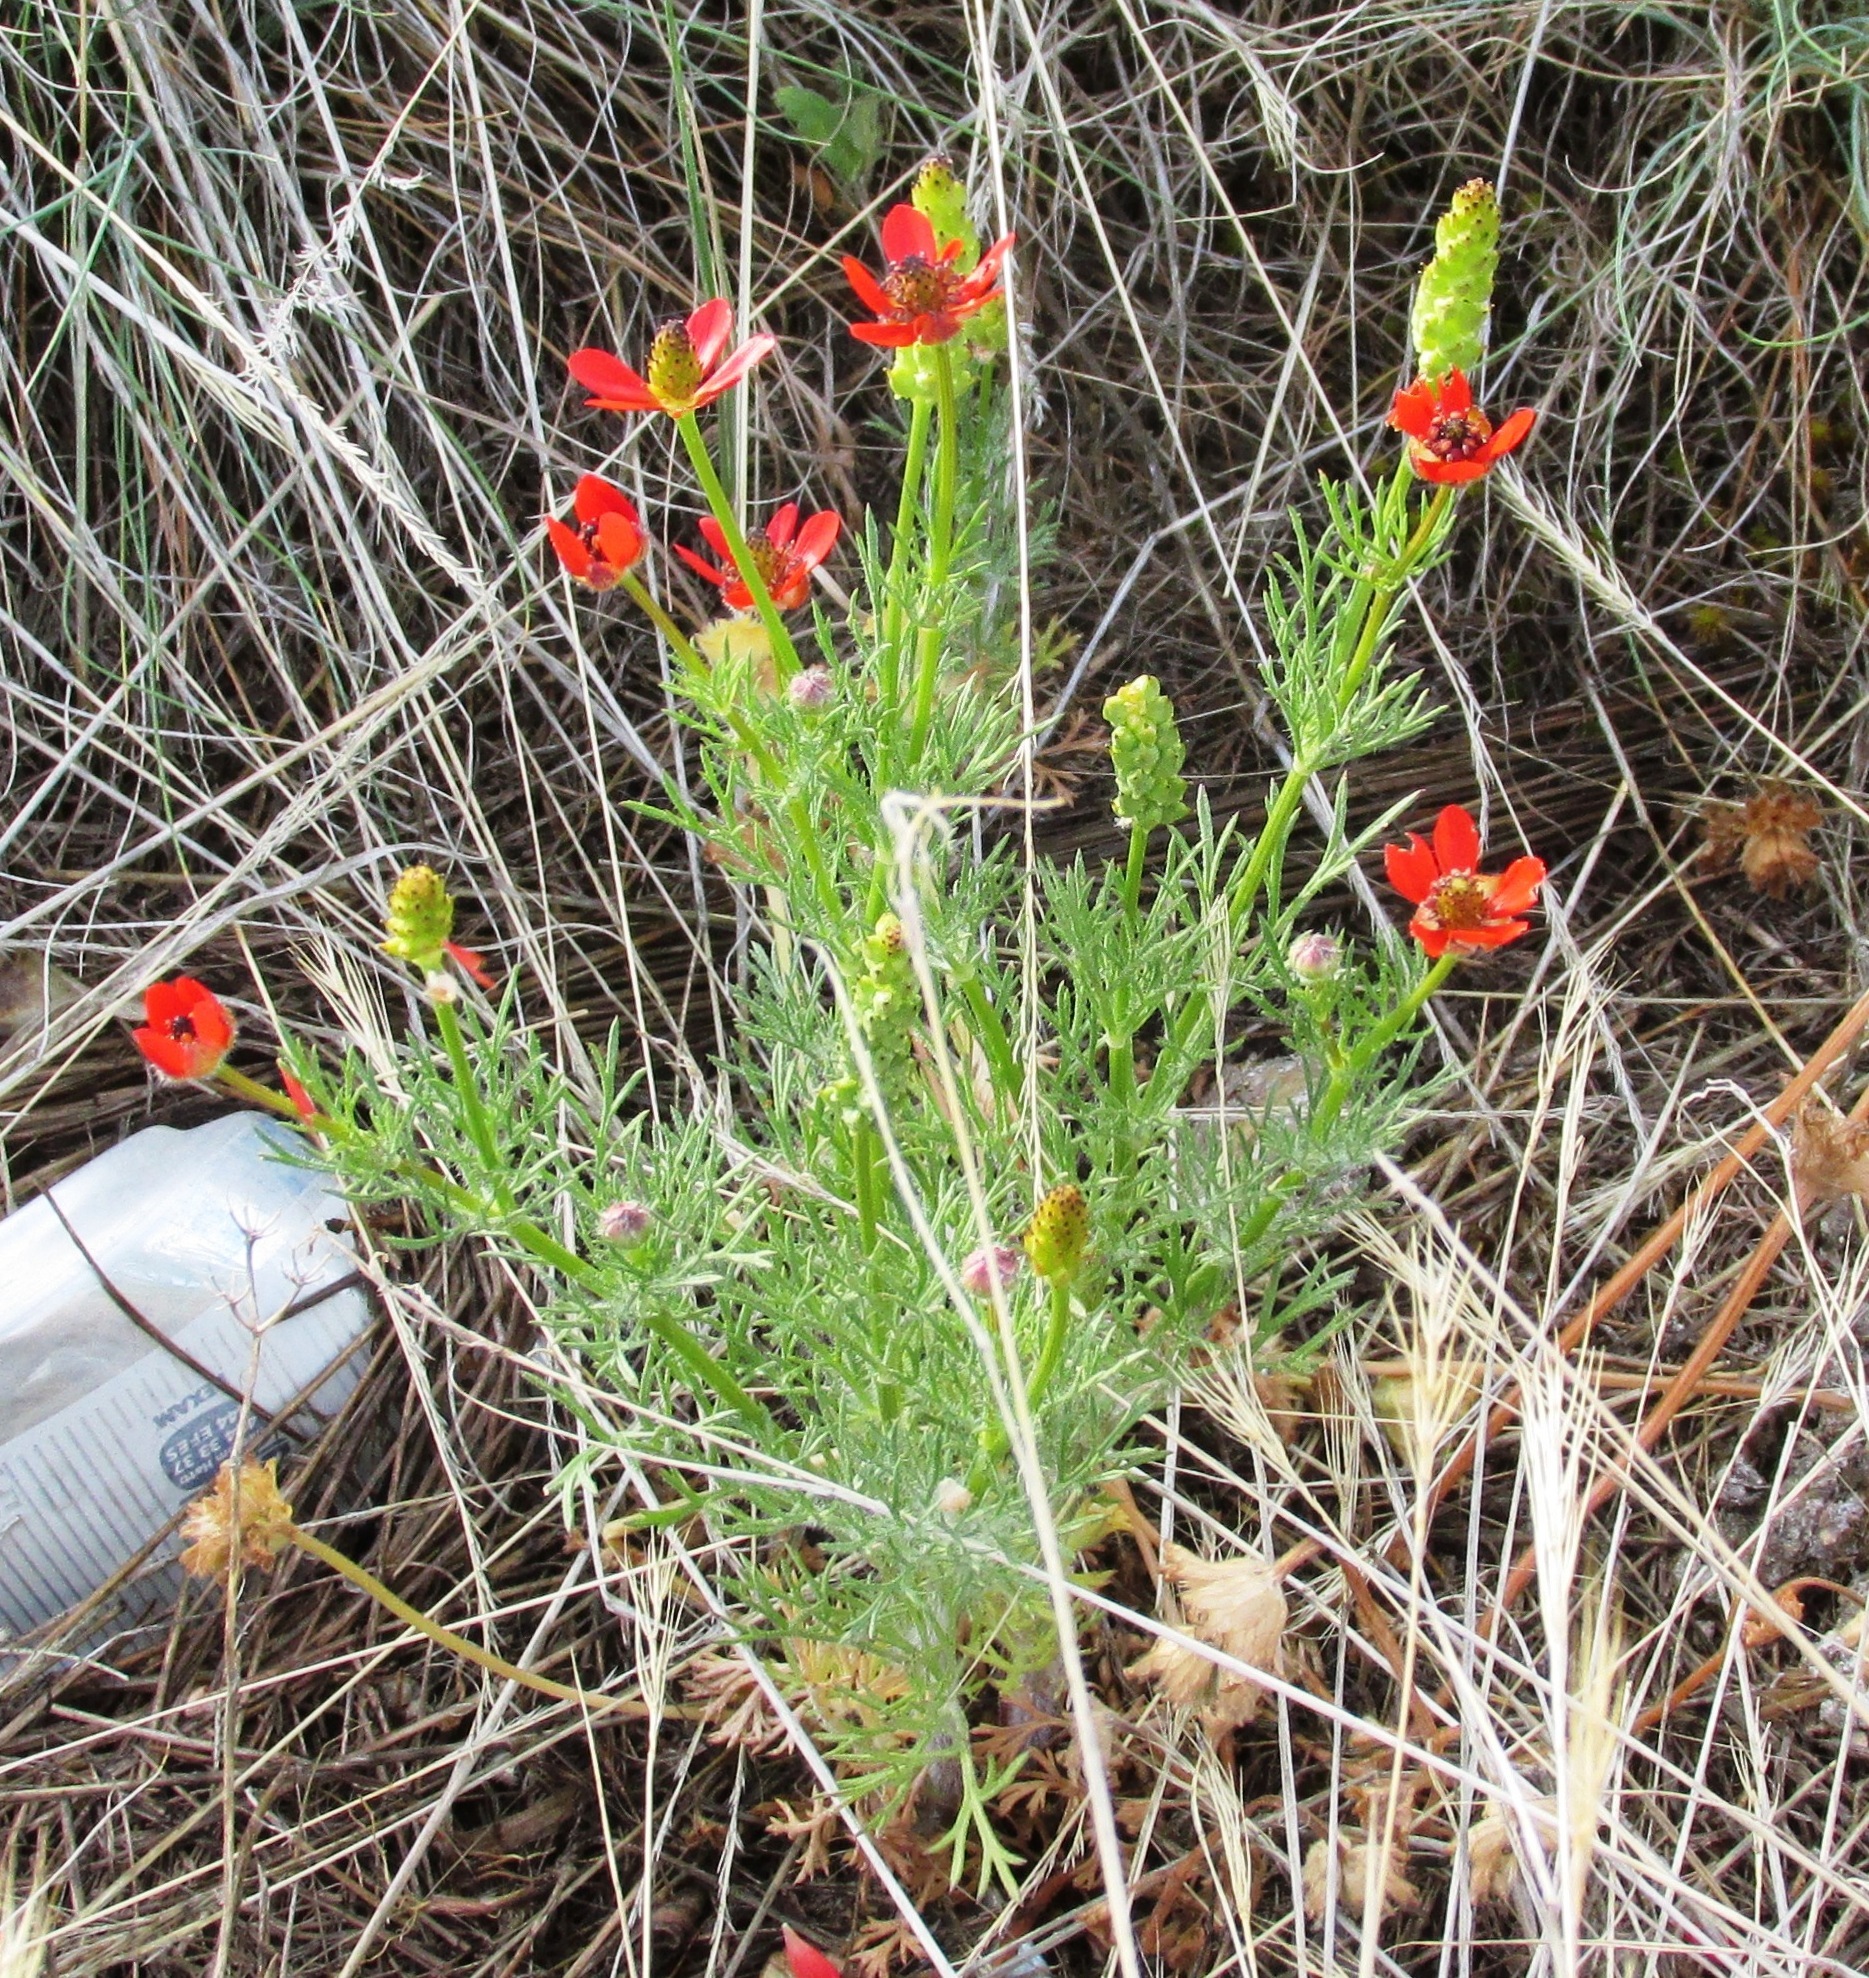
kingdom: Plantae
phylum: Tracheophyta
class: Magnoliopsida
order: Ranunculales
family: Ranunculaceae
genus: Adonis
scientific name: Adonis microcarpa
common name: Pheasant's-eye
